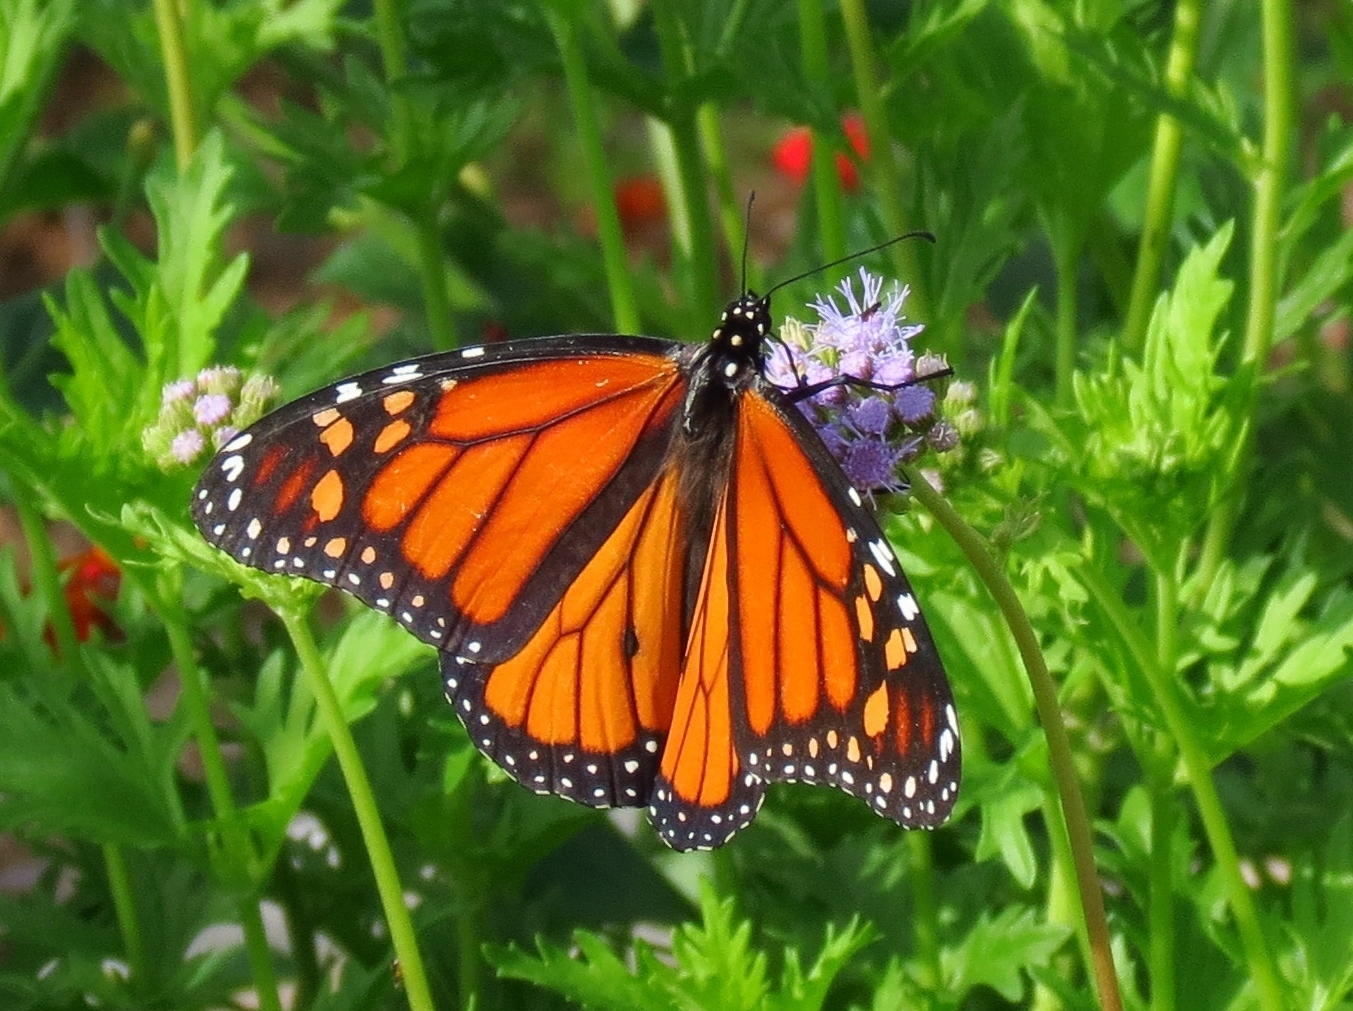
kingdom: Animalia
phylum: Arthropoda
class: Insecta
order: Lepidoptera
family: Nymphalidae
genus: Danaus
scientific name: Danaus plexippus
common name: Monarch
